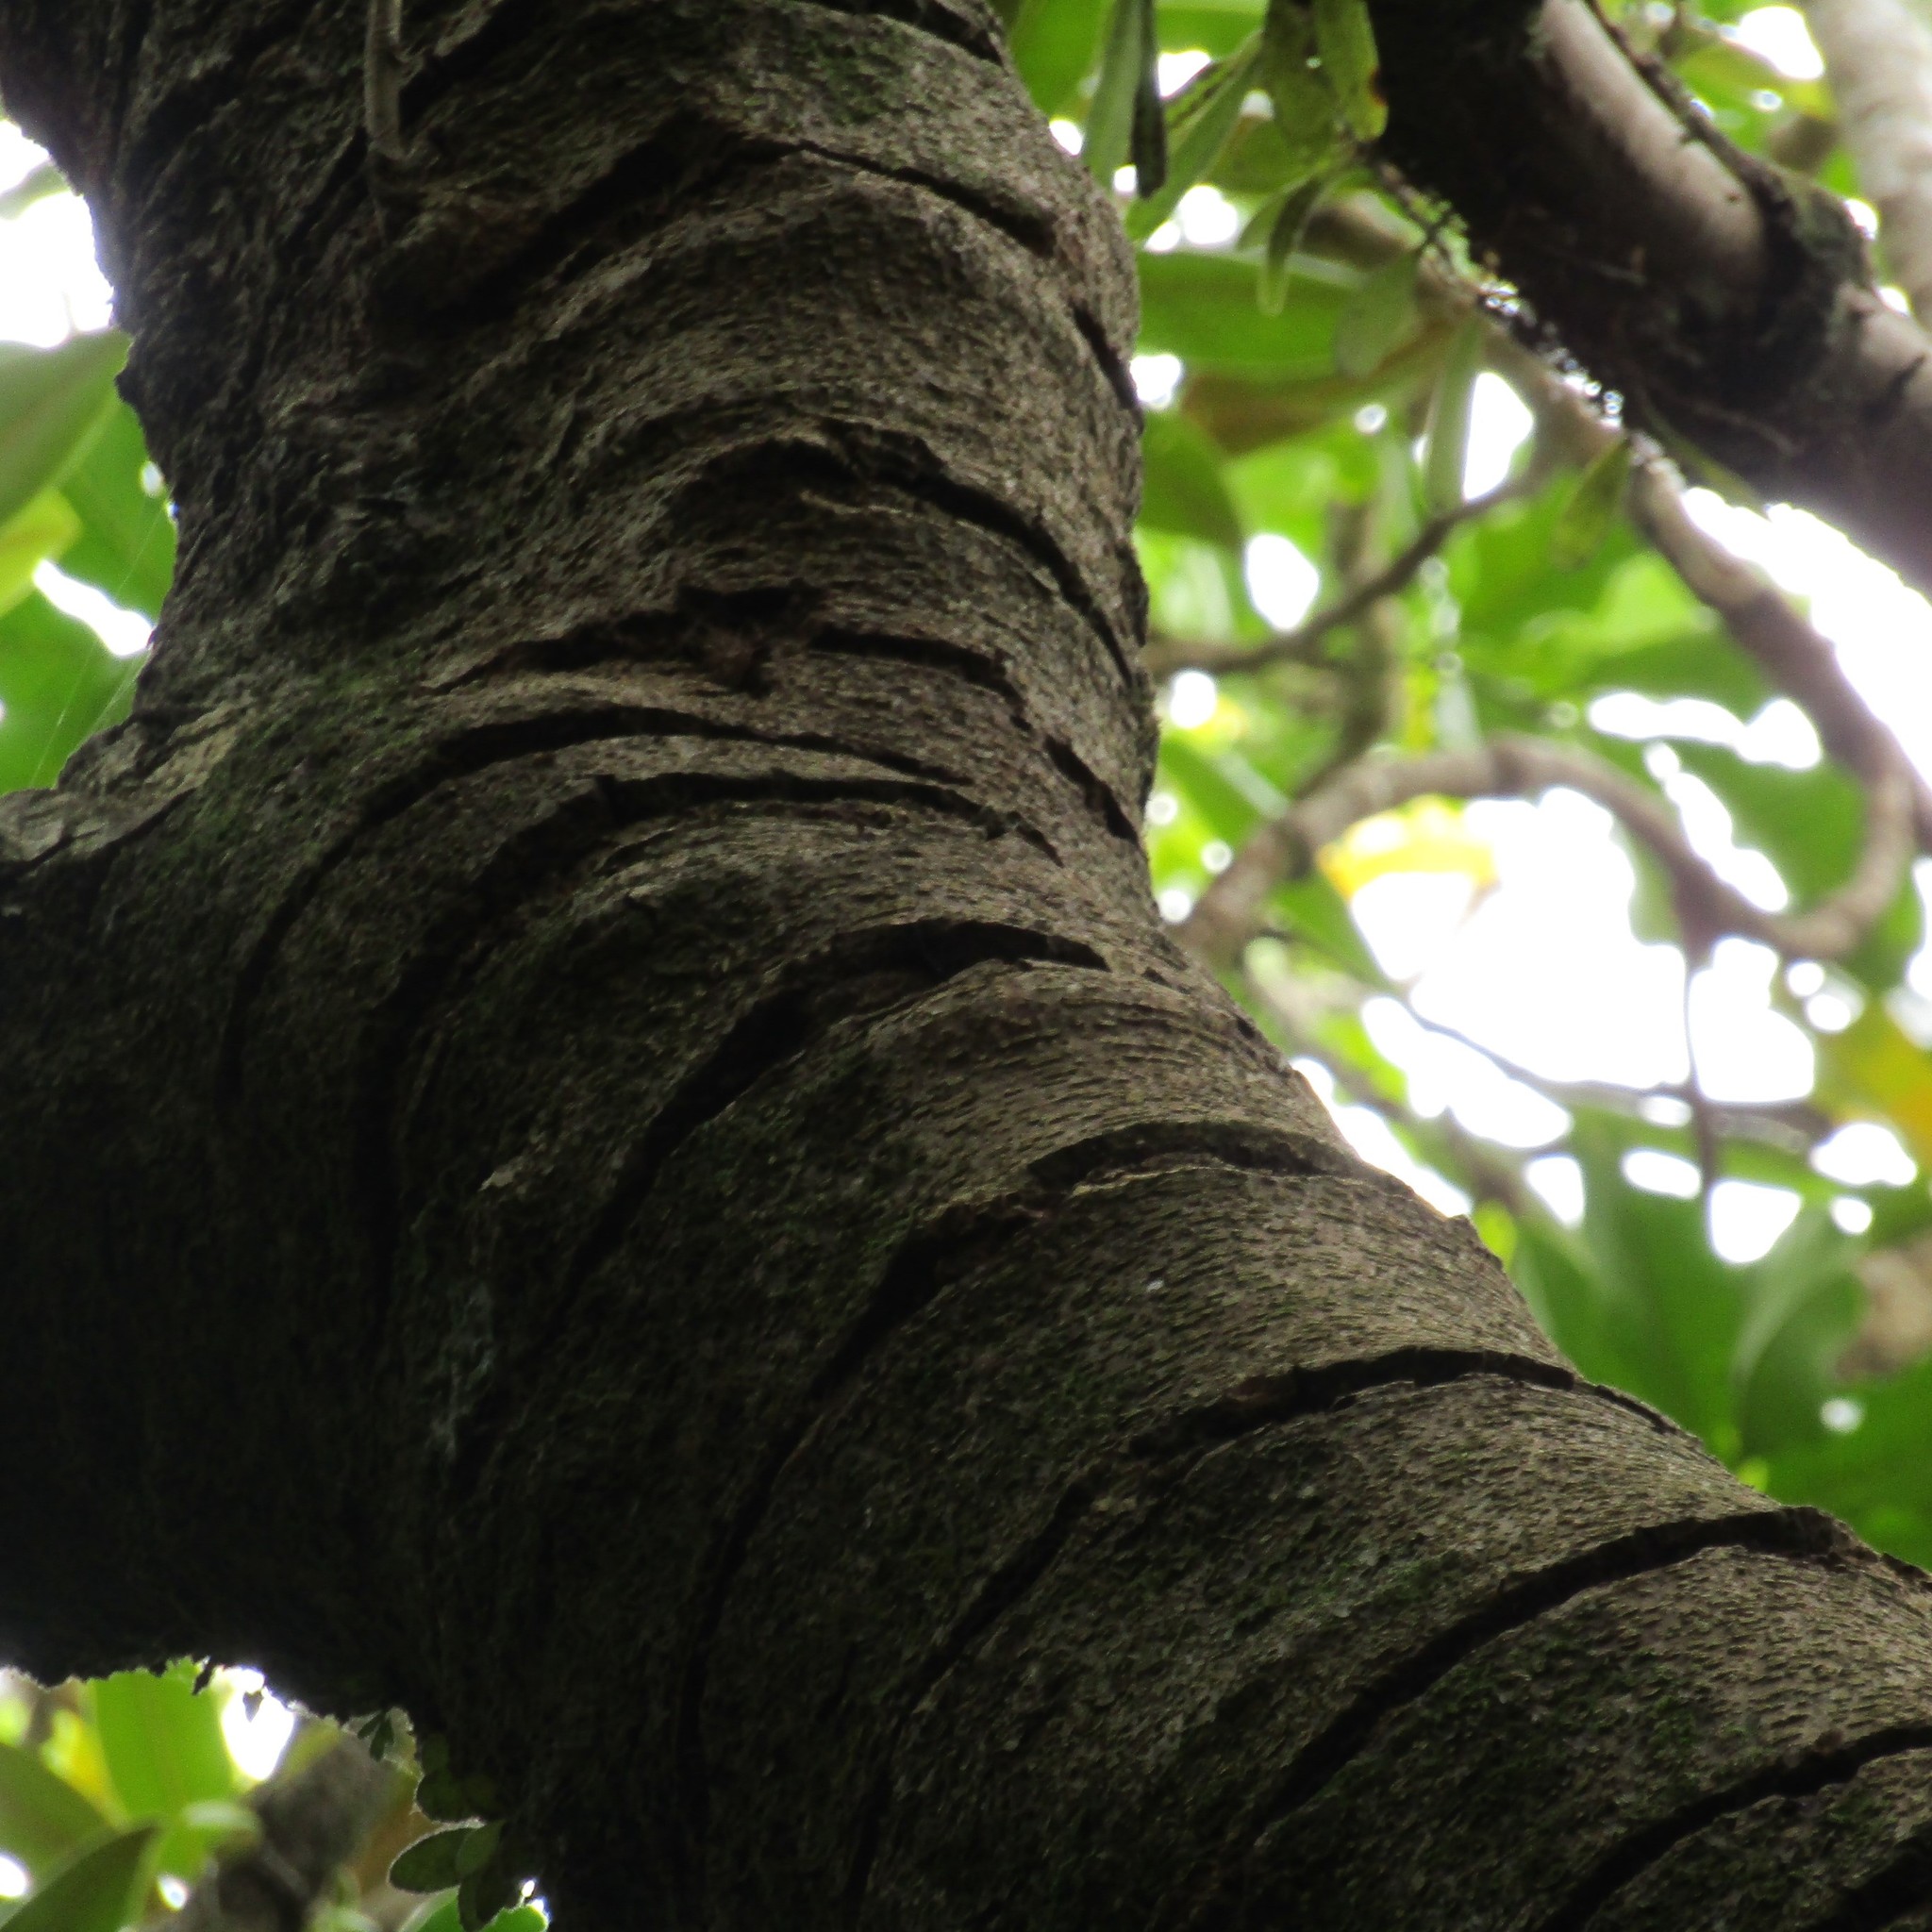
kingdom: Animalia
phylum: Chordata
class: Aves
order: Psittaciformes
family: Psittacidae
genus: Nestor
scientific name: Nestor meridionalis
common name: New zealand kaka
